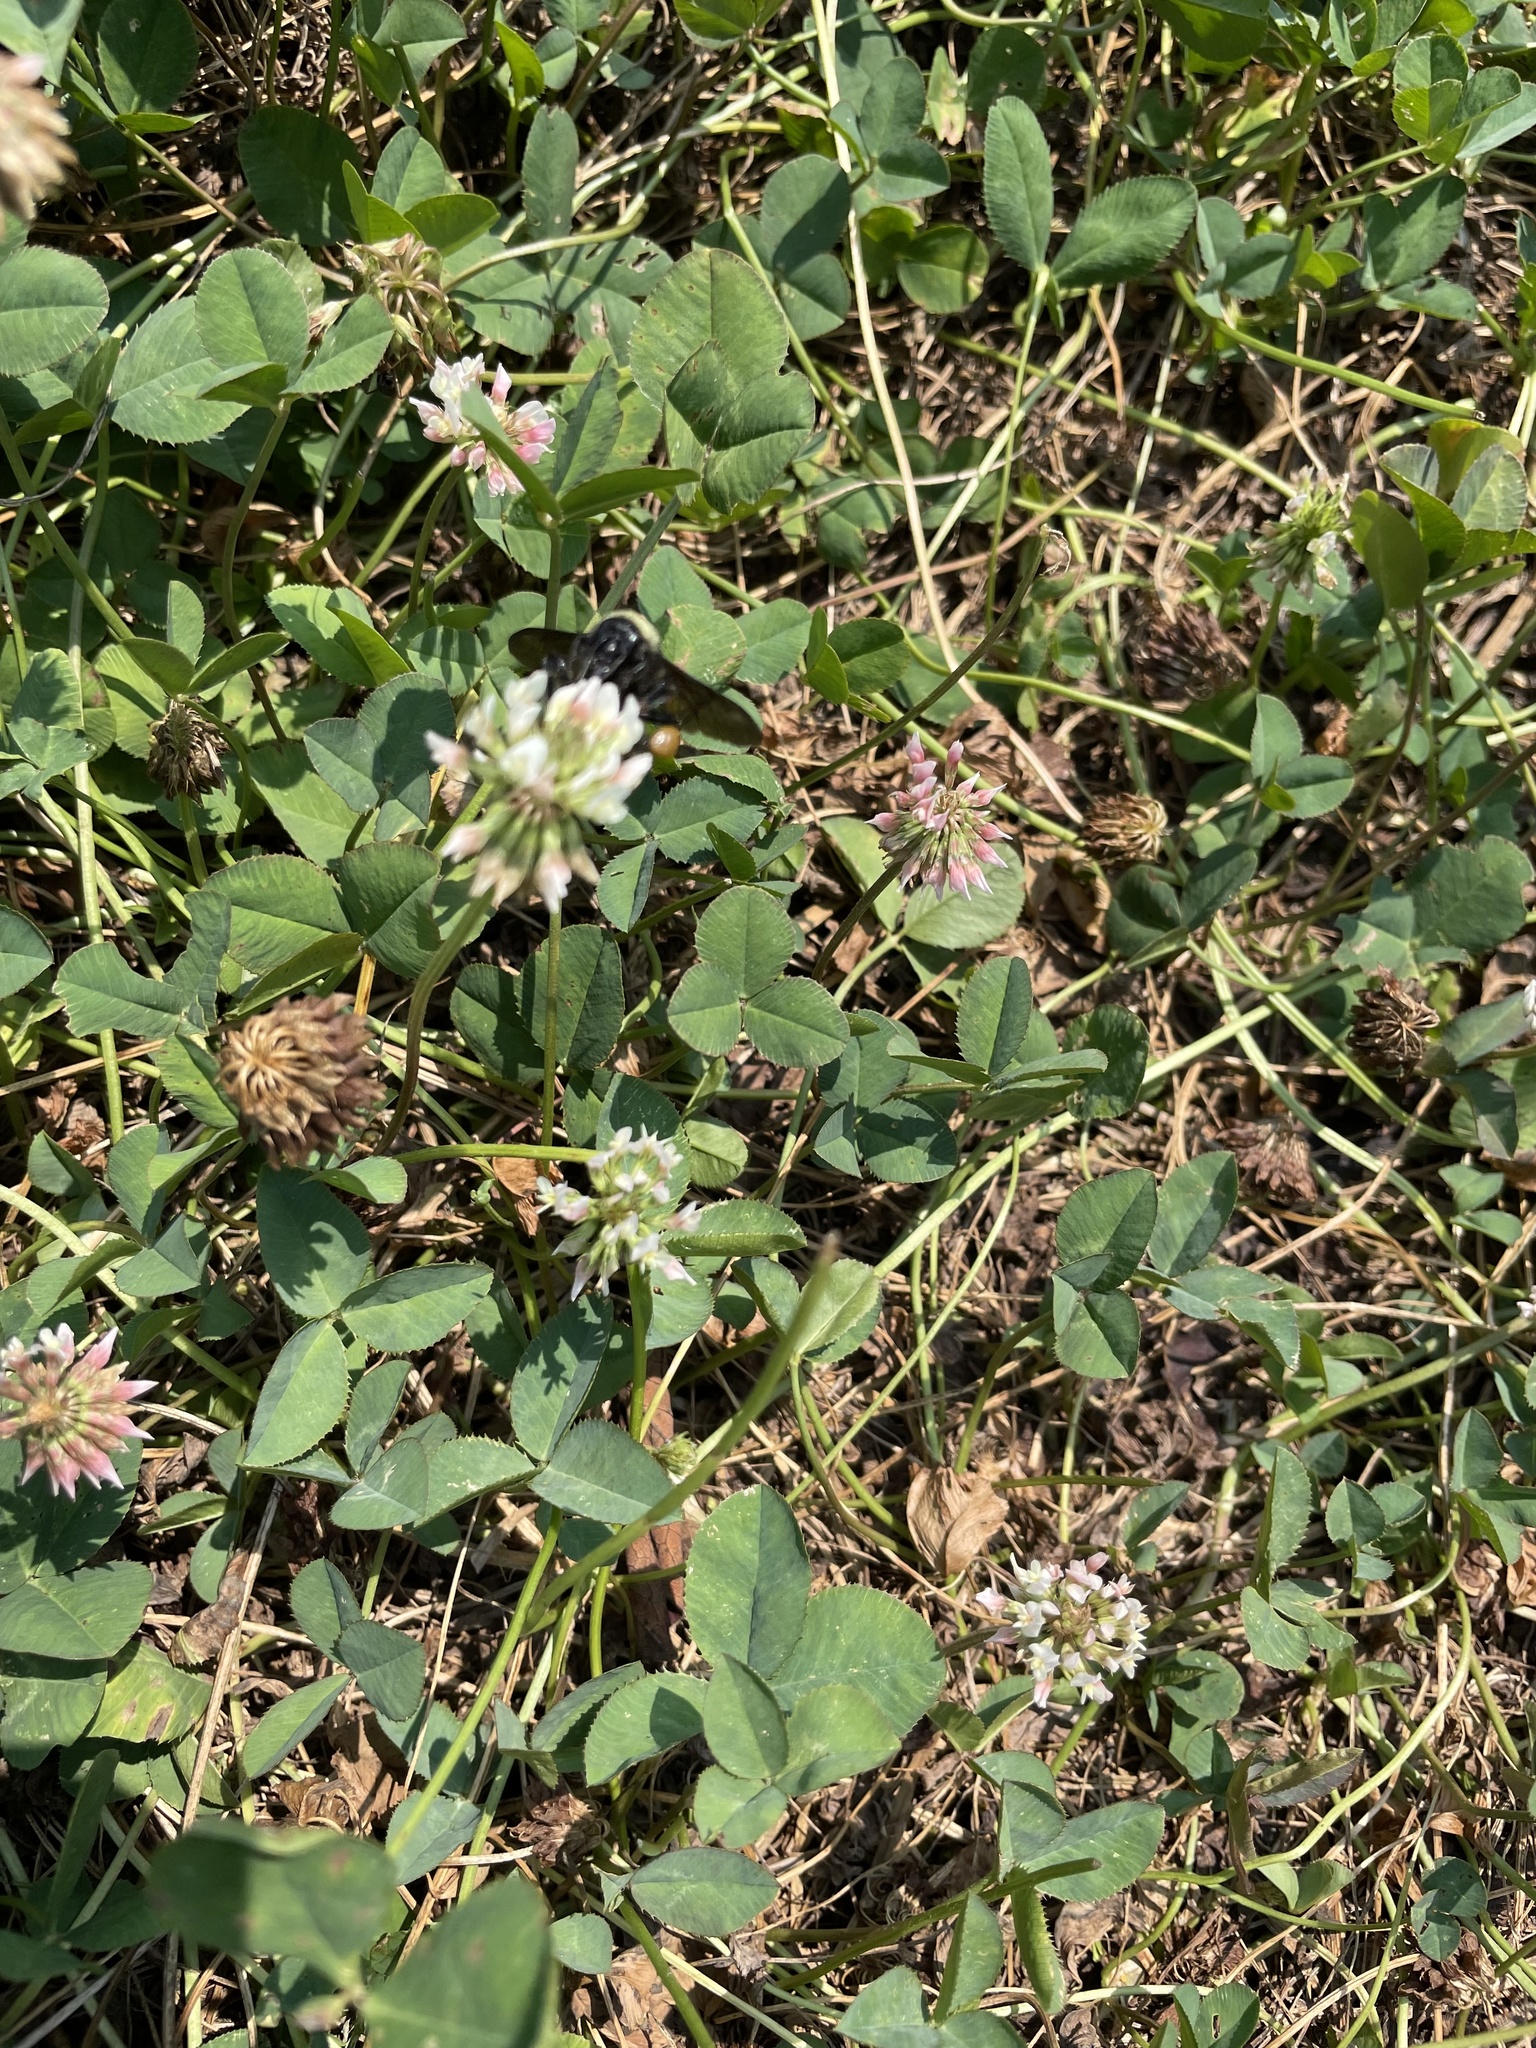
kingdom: Plantae
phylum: Tracheophyta
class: Magnoliopsida
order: Fabales
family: Fabaceae
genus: Trifolium
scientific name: Trifolium repens
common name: White clover
